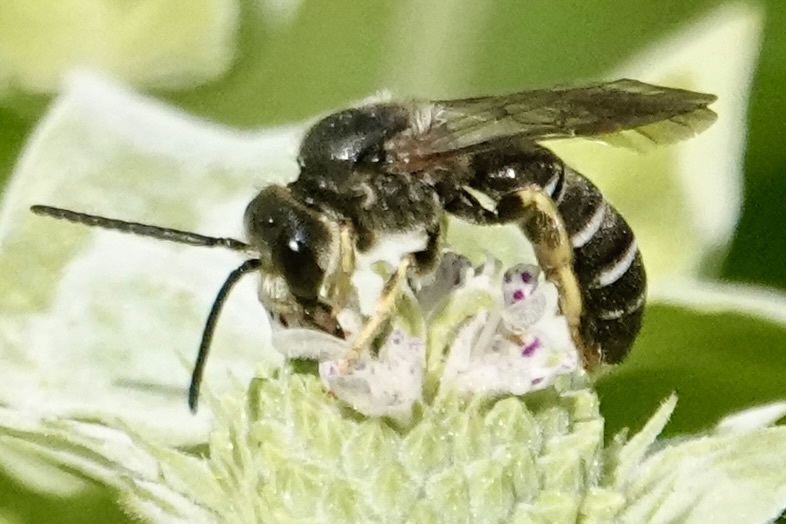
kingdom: Animalia
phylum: Arthropoda
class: Insecta
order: Hymenoptera
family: Halictidae
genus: Halictus
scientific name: Halictus rubicundus
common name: Orange-legged furrow bee
